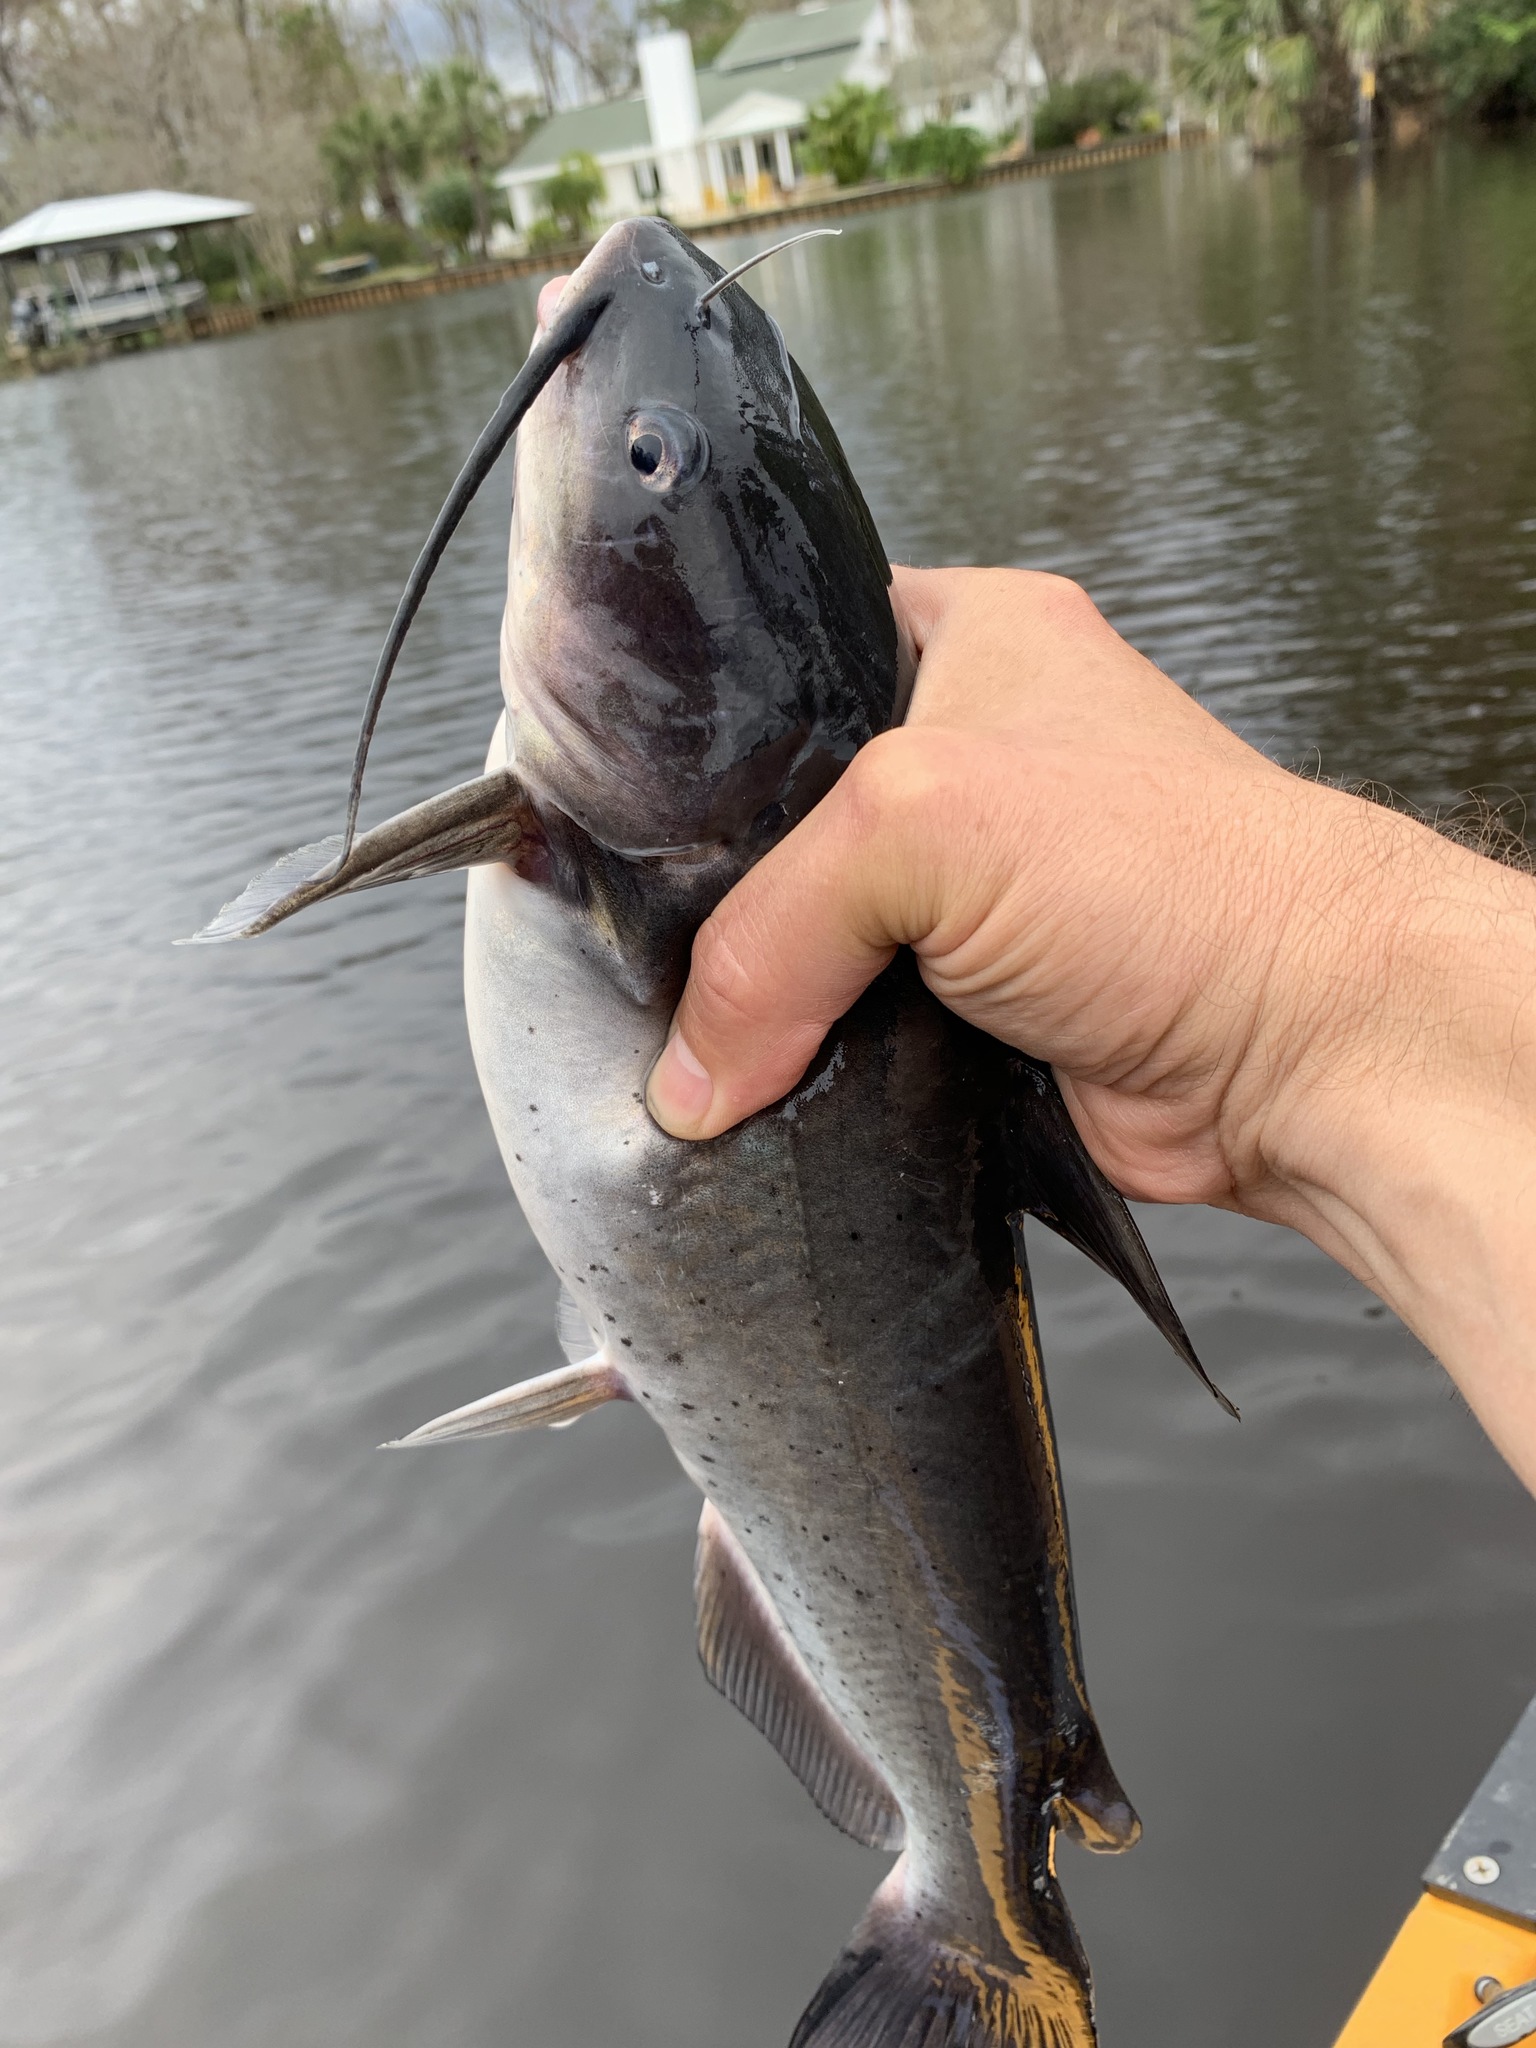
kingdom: Animalia
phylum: Chordata
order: Siluriformes
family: Ictaluridae
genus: Ictalurus
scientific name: Ictalurus punctatus
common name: Channel catfish
